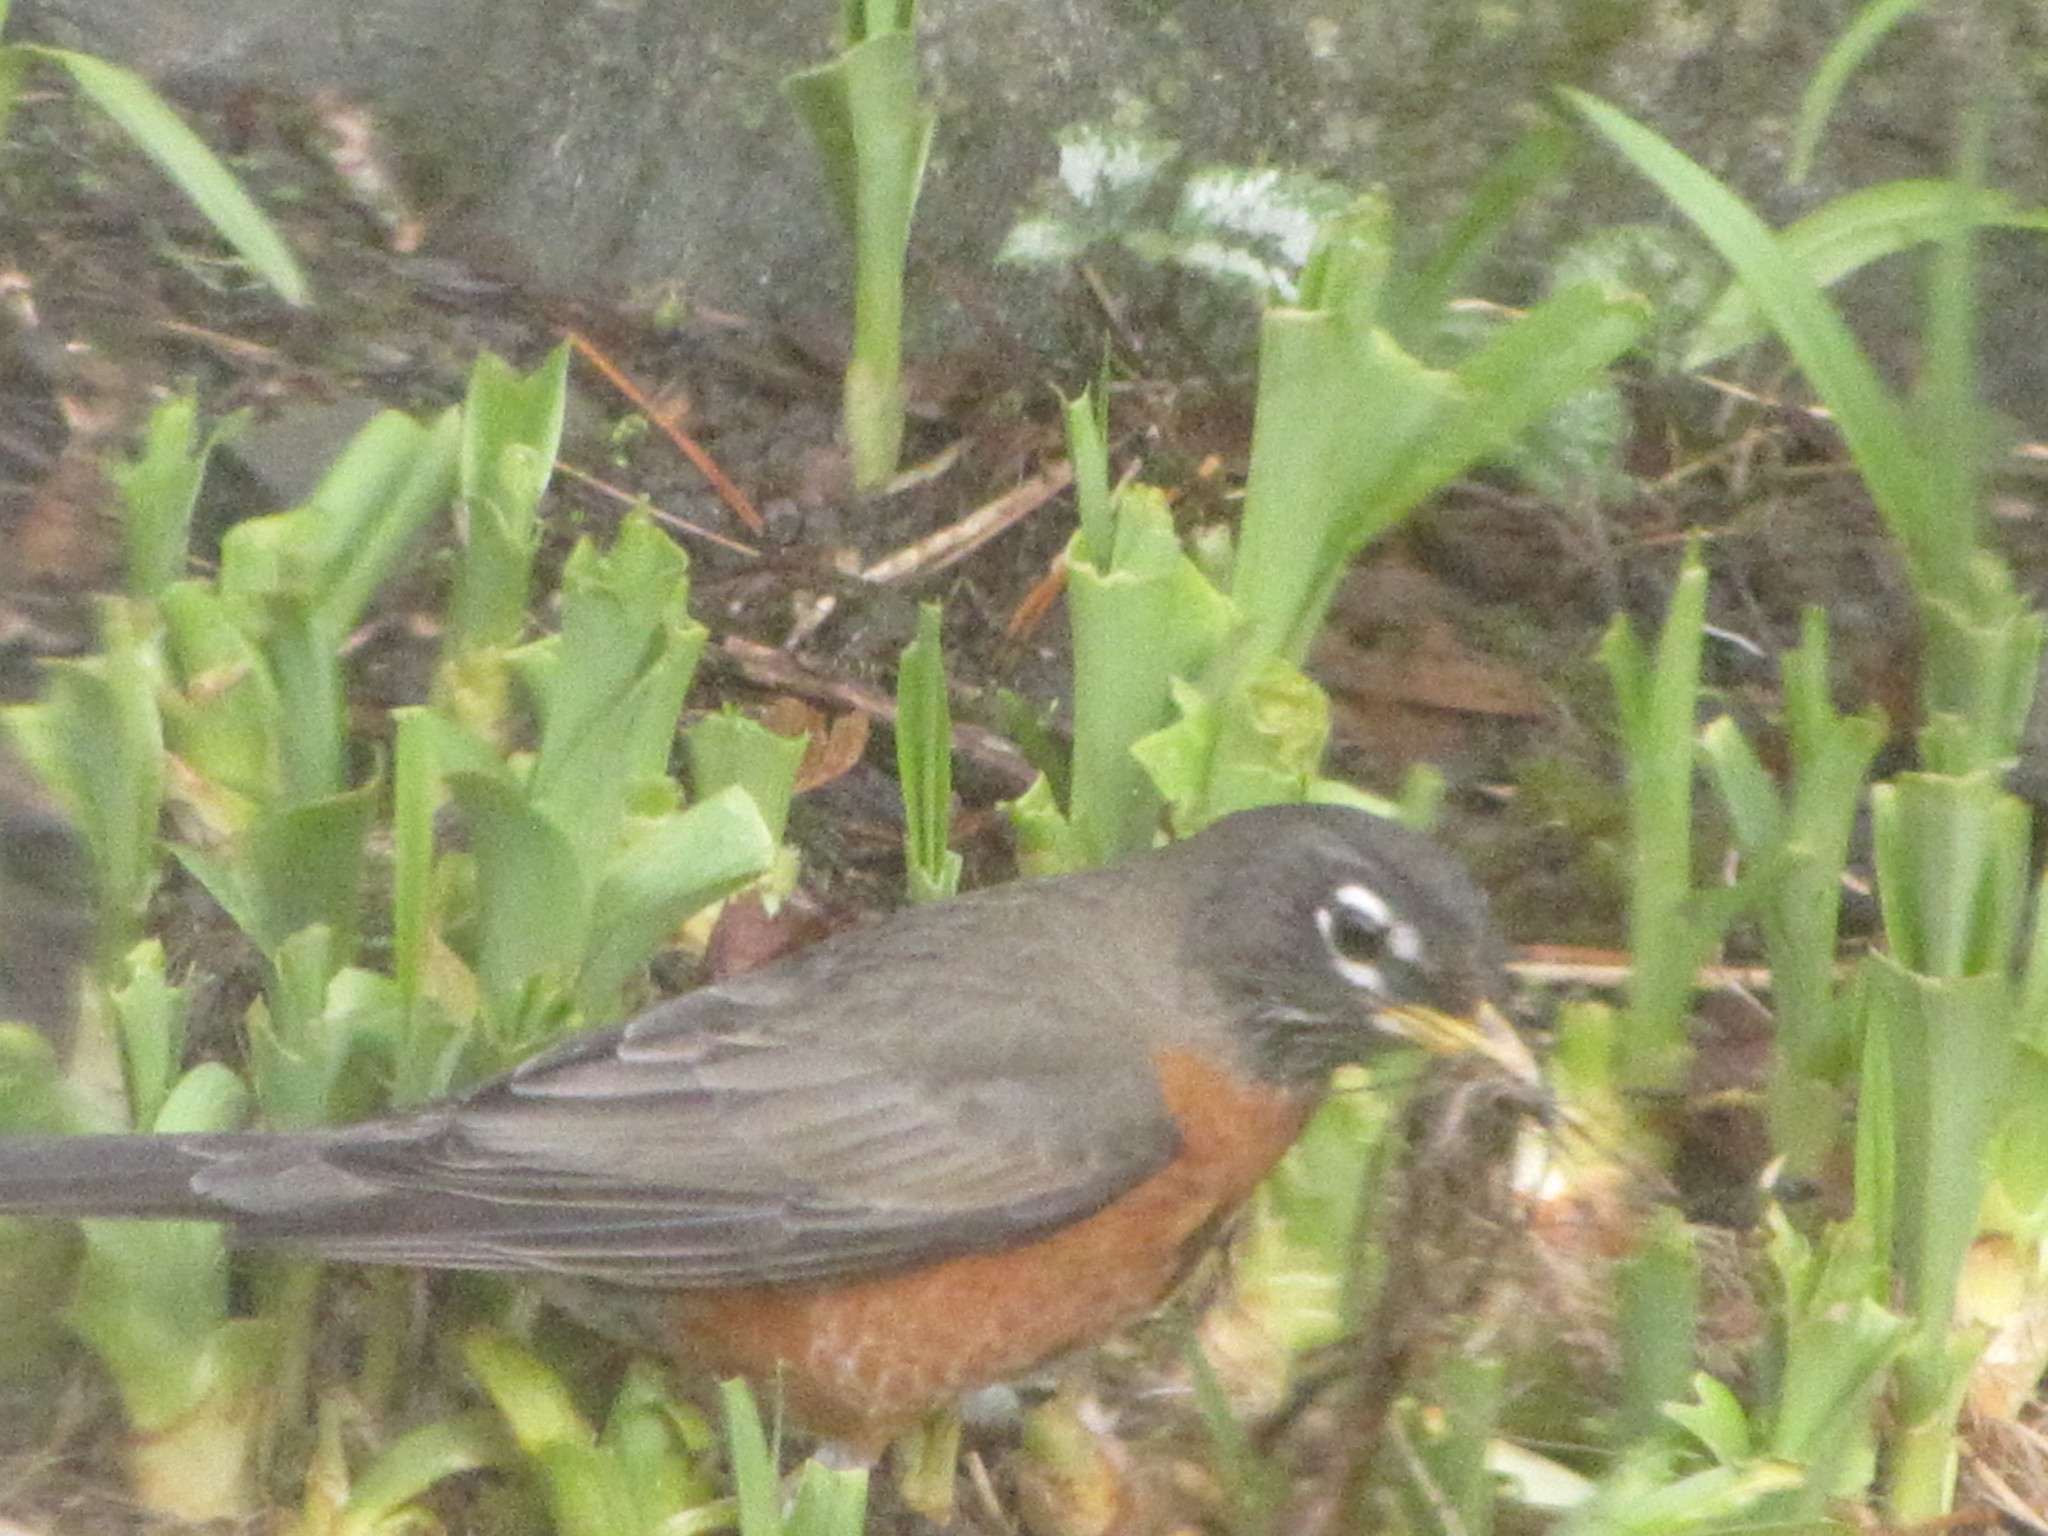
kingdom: Animalia
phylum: Chordata
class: Aves
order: Passeriformes
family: Turdidae
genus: Turdus
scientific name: Turdus migratorius
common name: American robin
